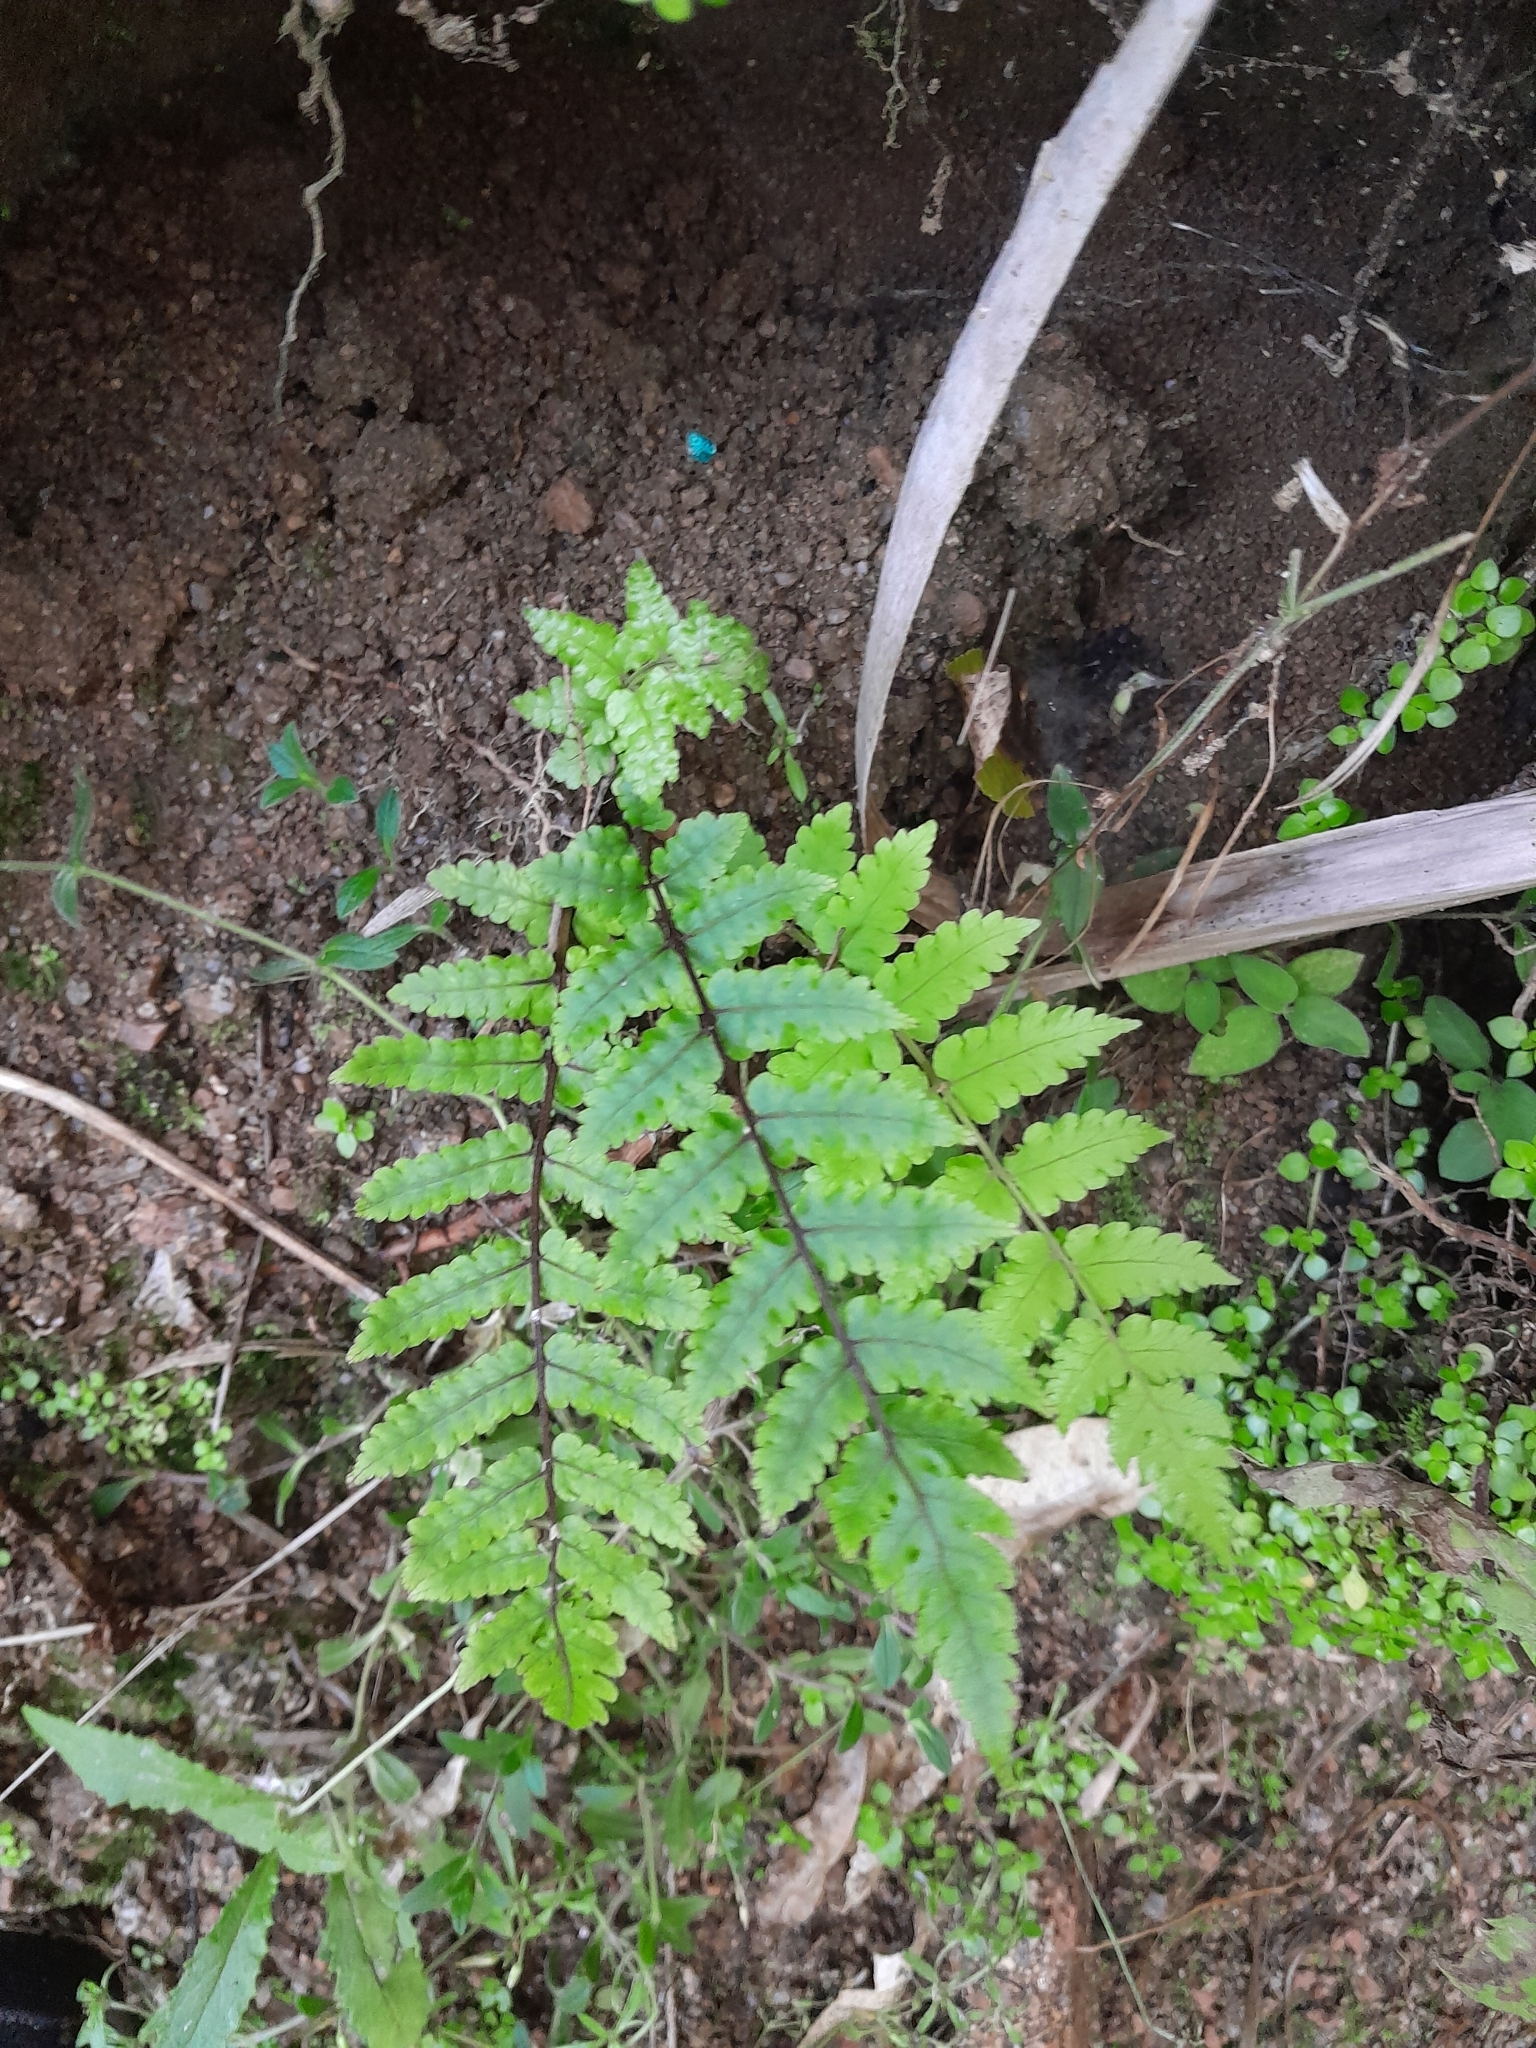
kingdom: Plantae
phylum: Tracheophyta
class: Polypodiopsida
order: Polypodiales
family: Thelypteridaceae
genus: Pakau
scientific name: Pakau pennigera
